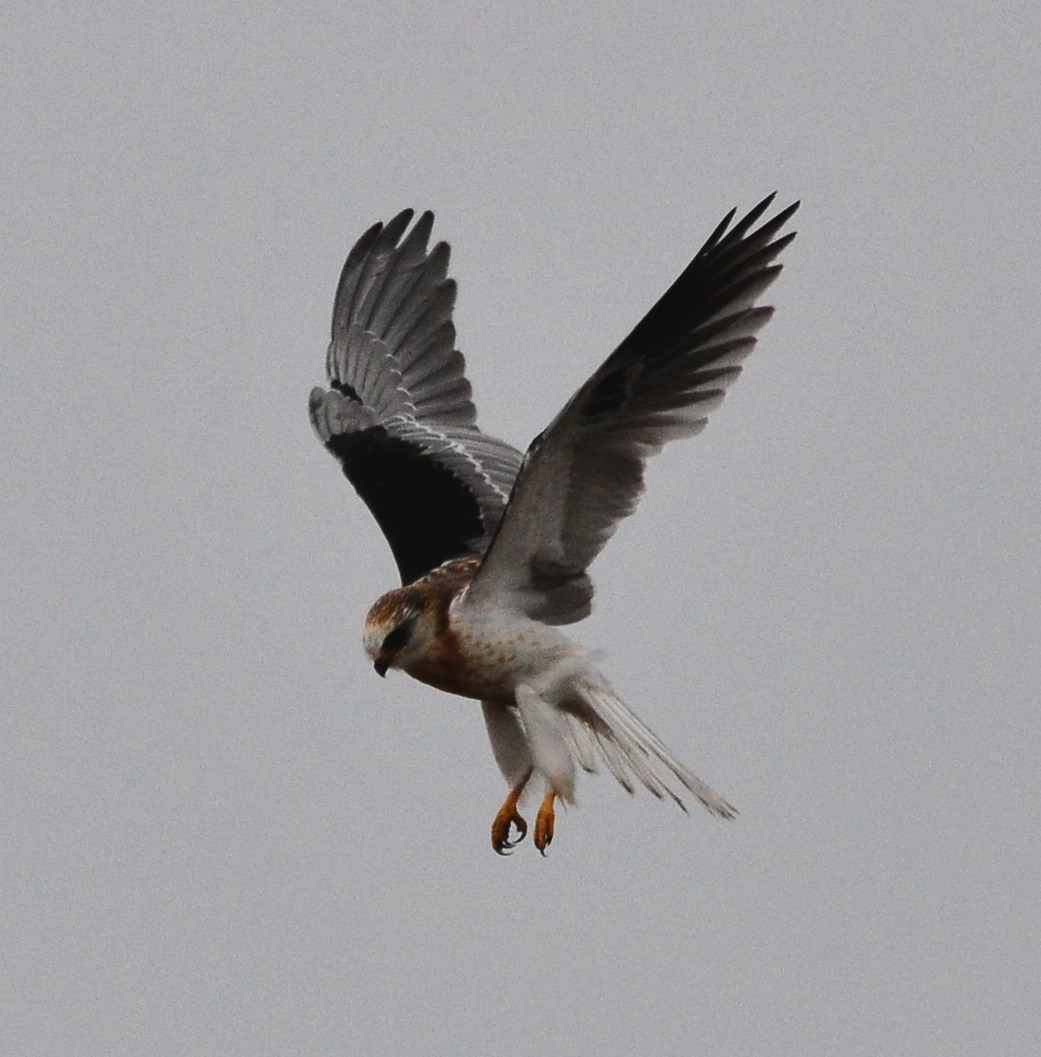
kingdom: Animalia
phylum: Chordata
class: Aves
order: Accipitriformes
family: Accipitridae
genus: Elanus
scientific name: Elanus leucurus
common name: White-tailed kite
